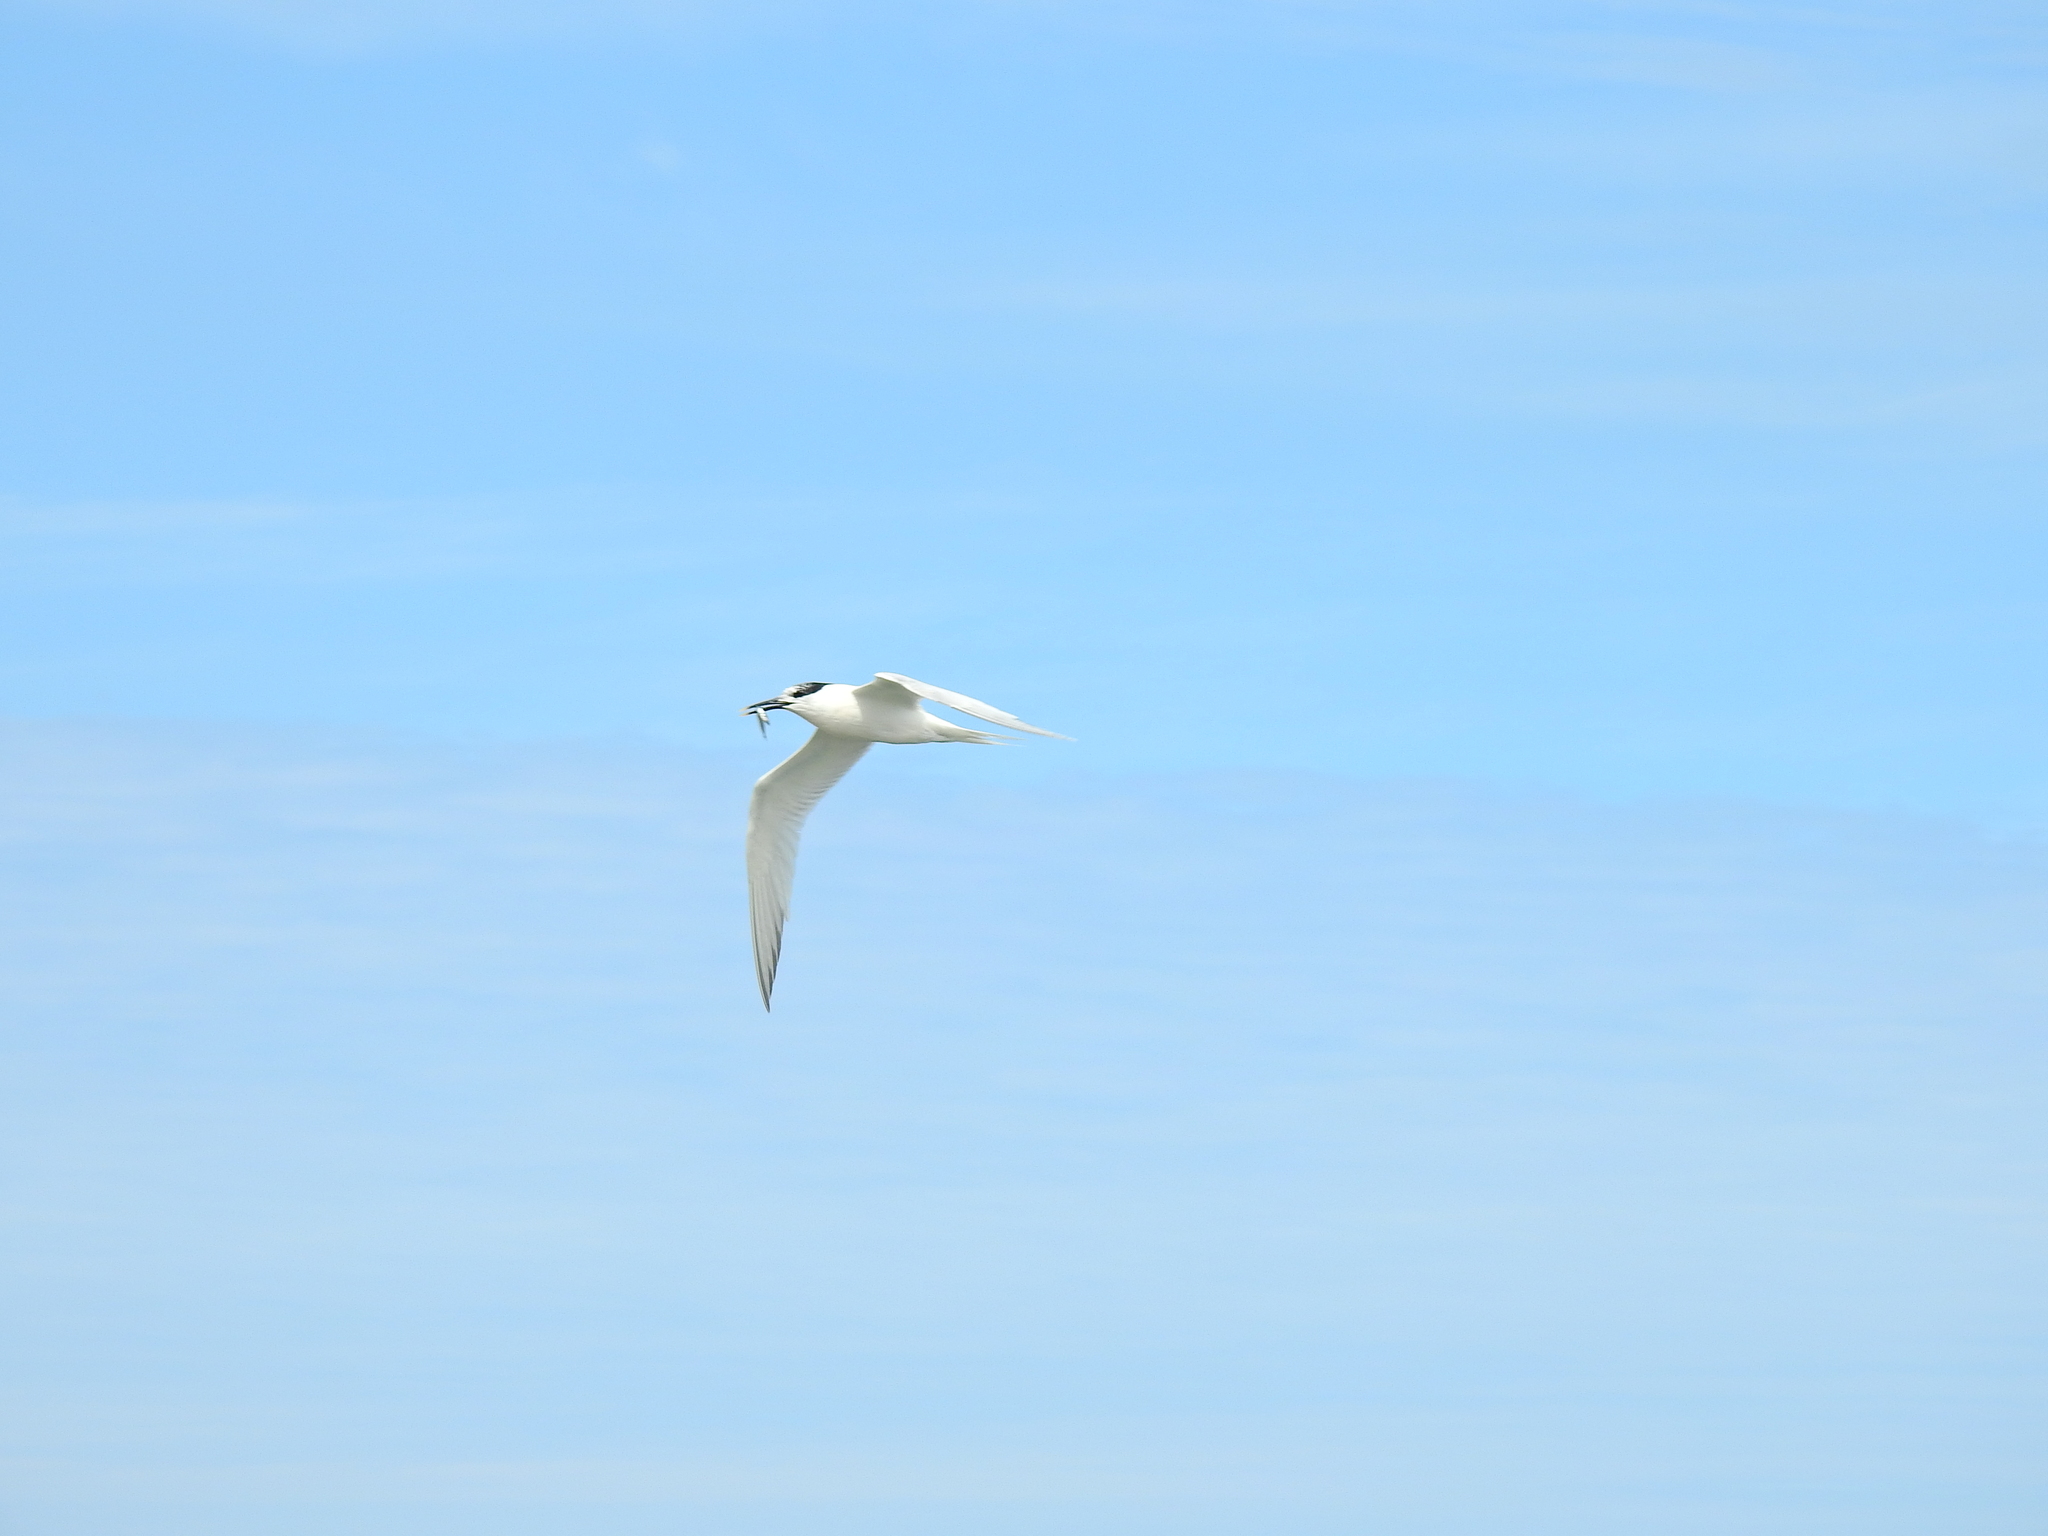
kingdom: Animalia
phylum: Chordata
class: Aves
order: Charadriiformes
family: Laridae
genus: Thalasseus
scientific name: Thalasseus sandvicensis
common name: Sandwich tern
